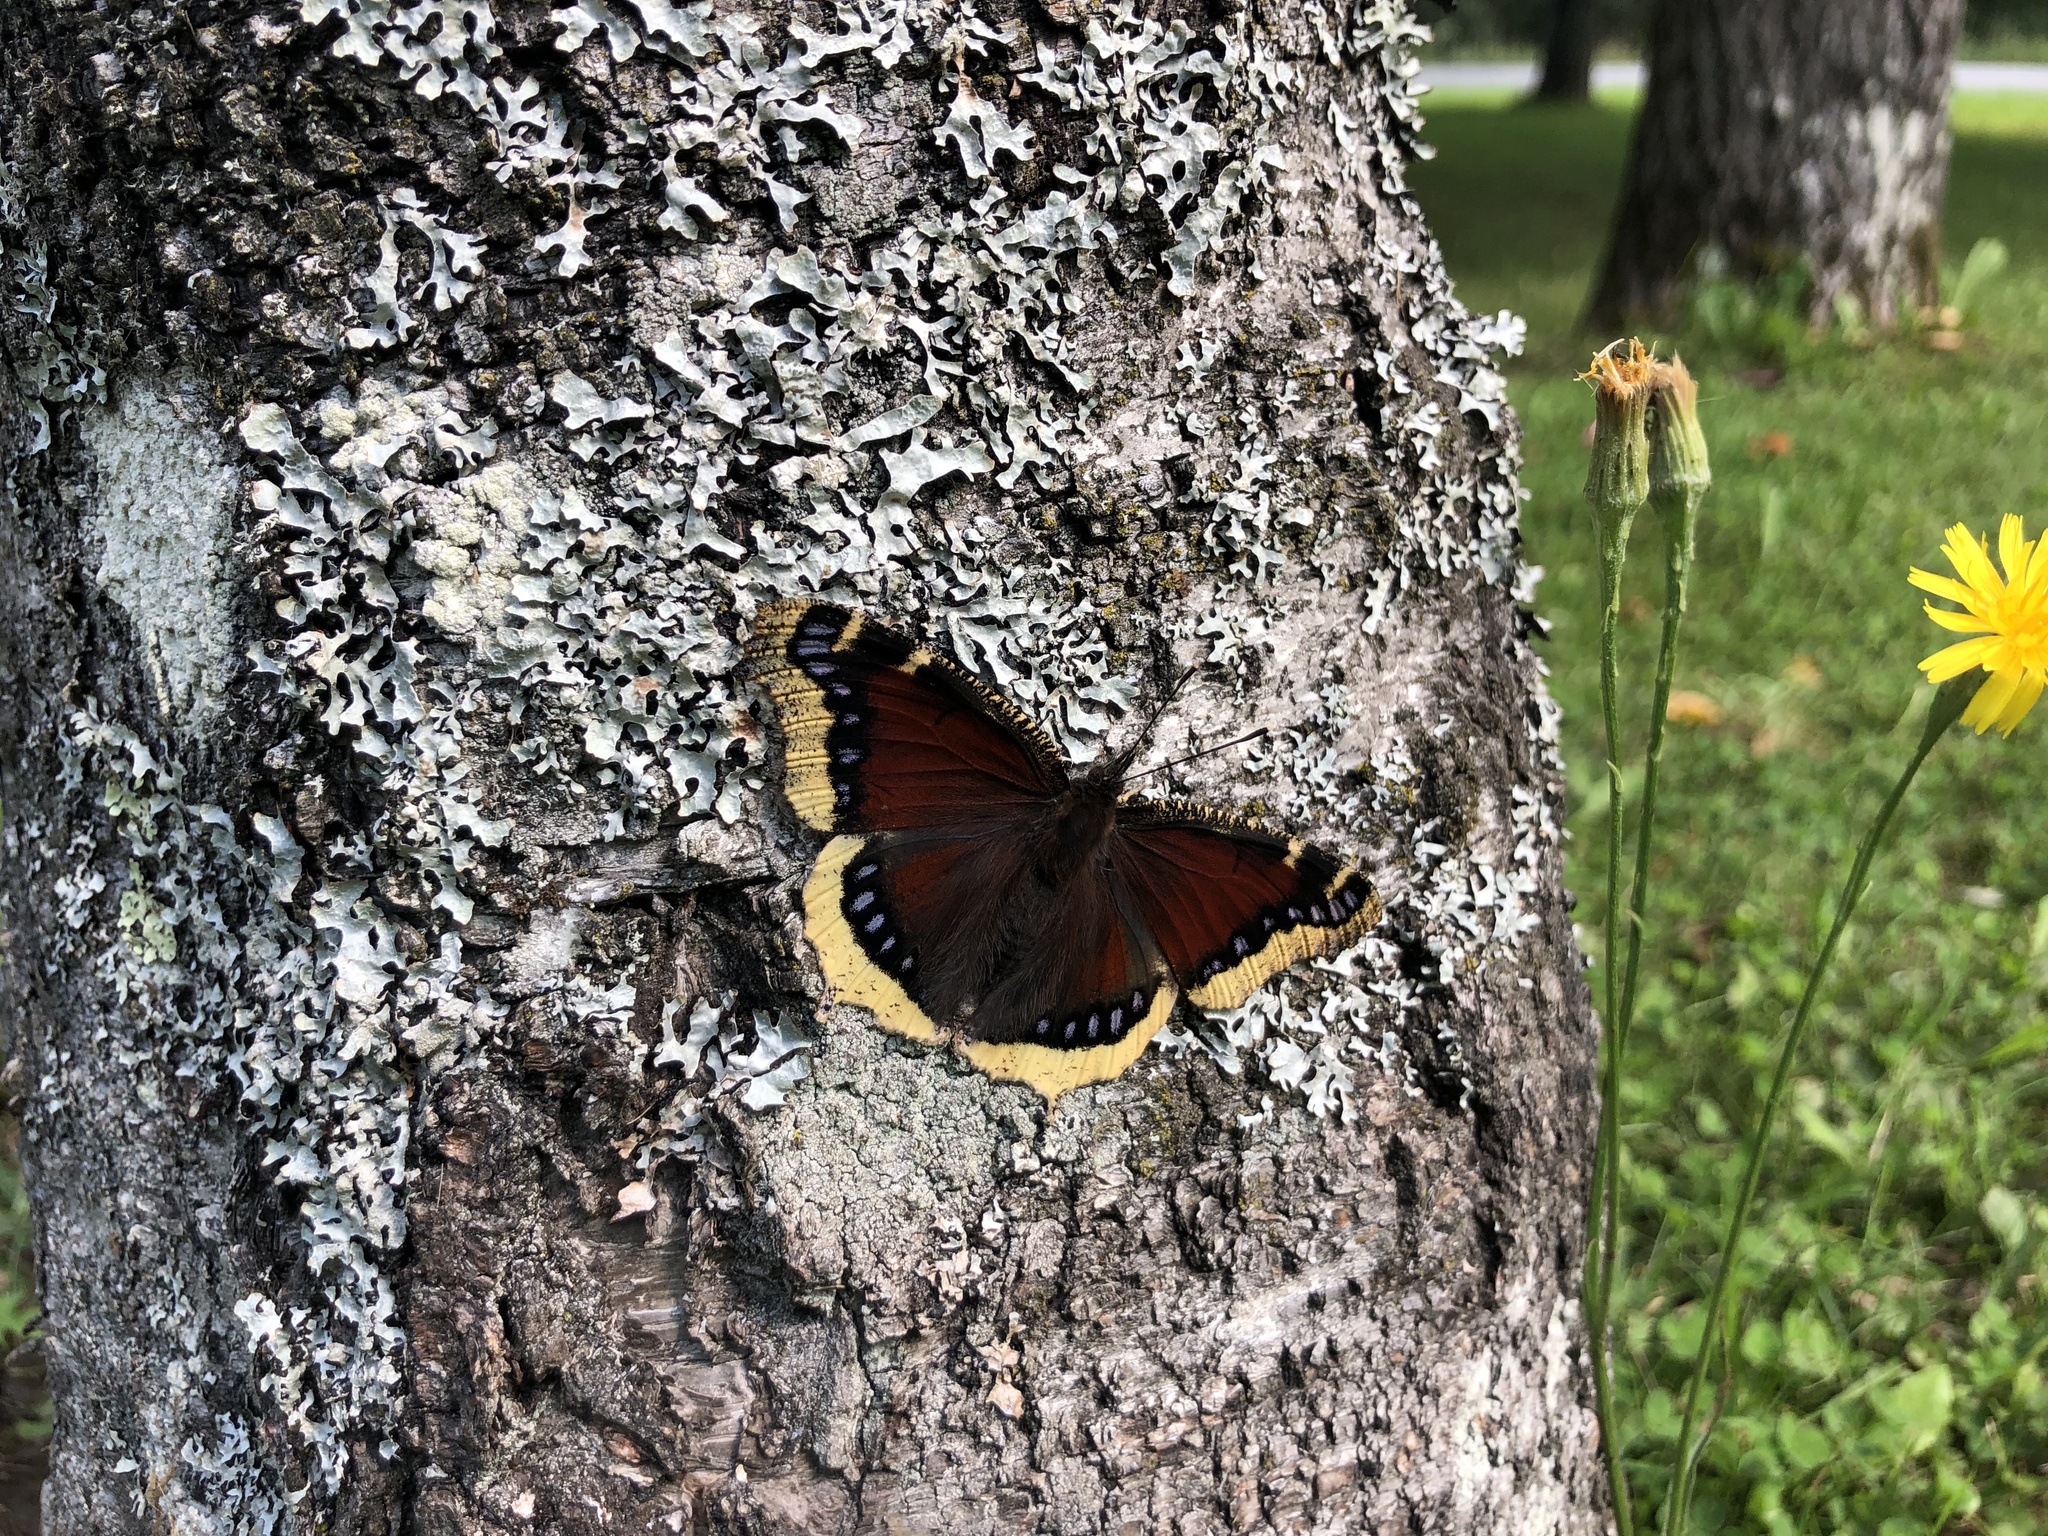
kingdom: Animalia
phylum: Arthropoda
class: Insecta
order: Lepidoptera
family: Nymphalidae
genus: Nymphalis
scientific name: Nymphalis antiopa
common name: Camberwell beauty
